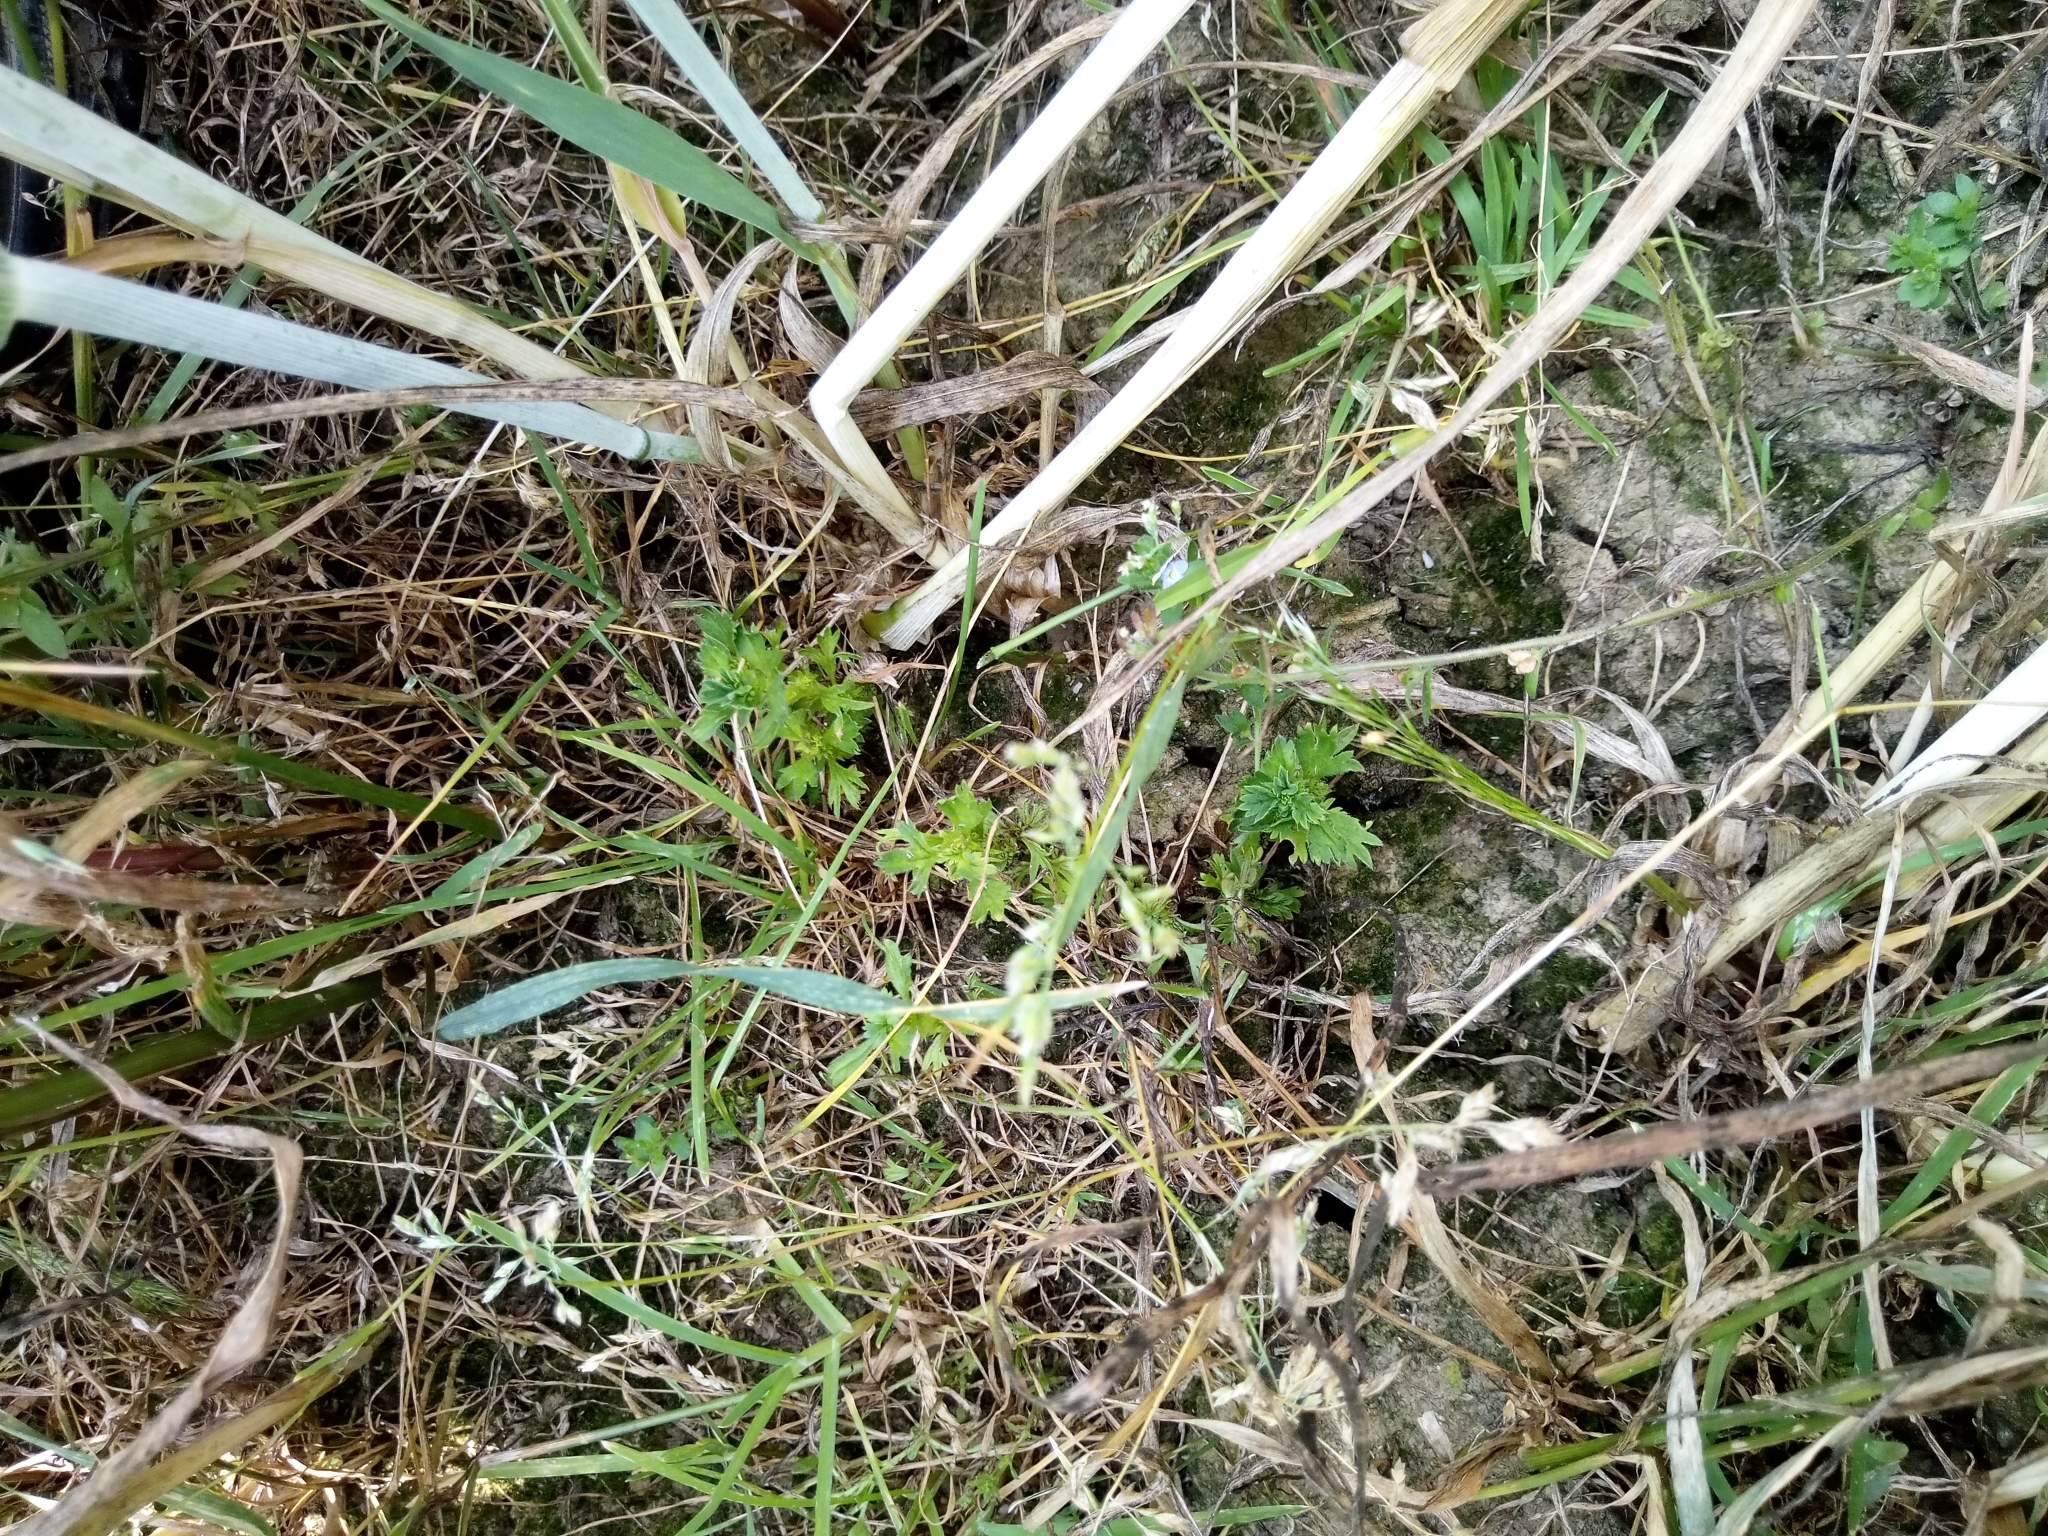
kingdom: Plantae
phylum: Tracheophyta
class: Magnoliopsida
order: Rosales
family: Rosaceae
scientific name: Rosaceae
